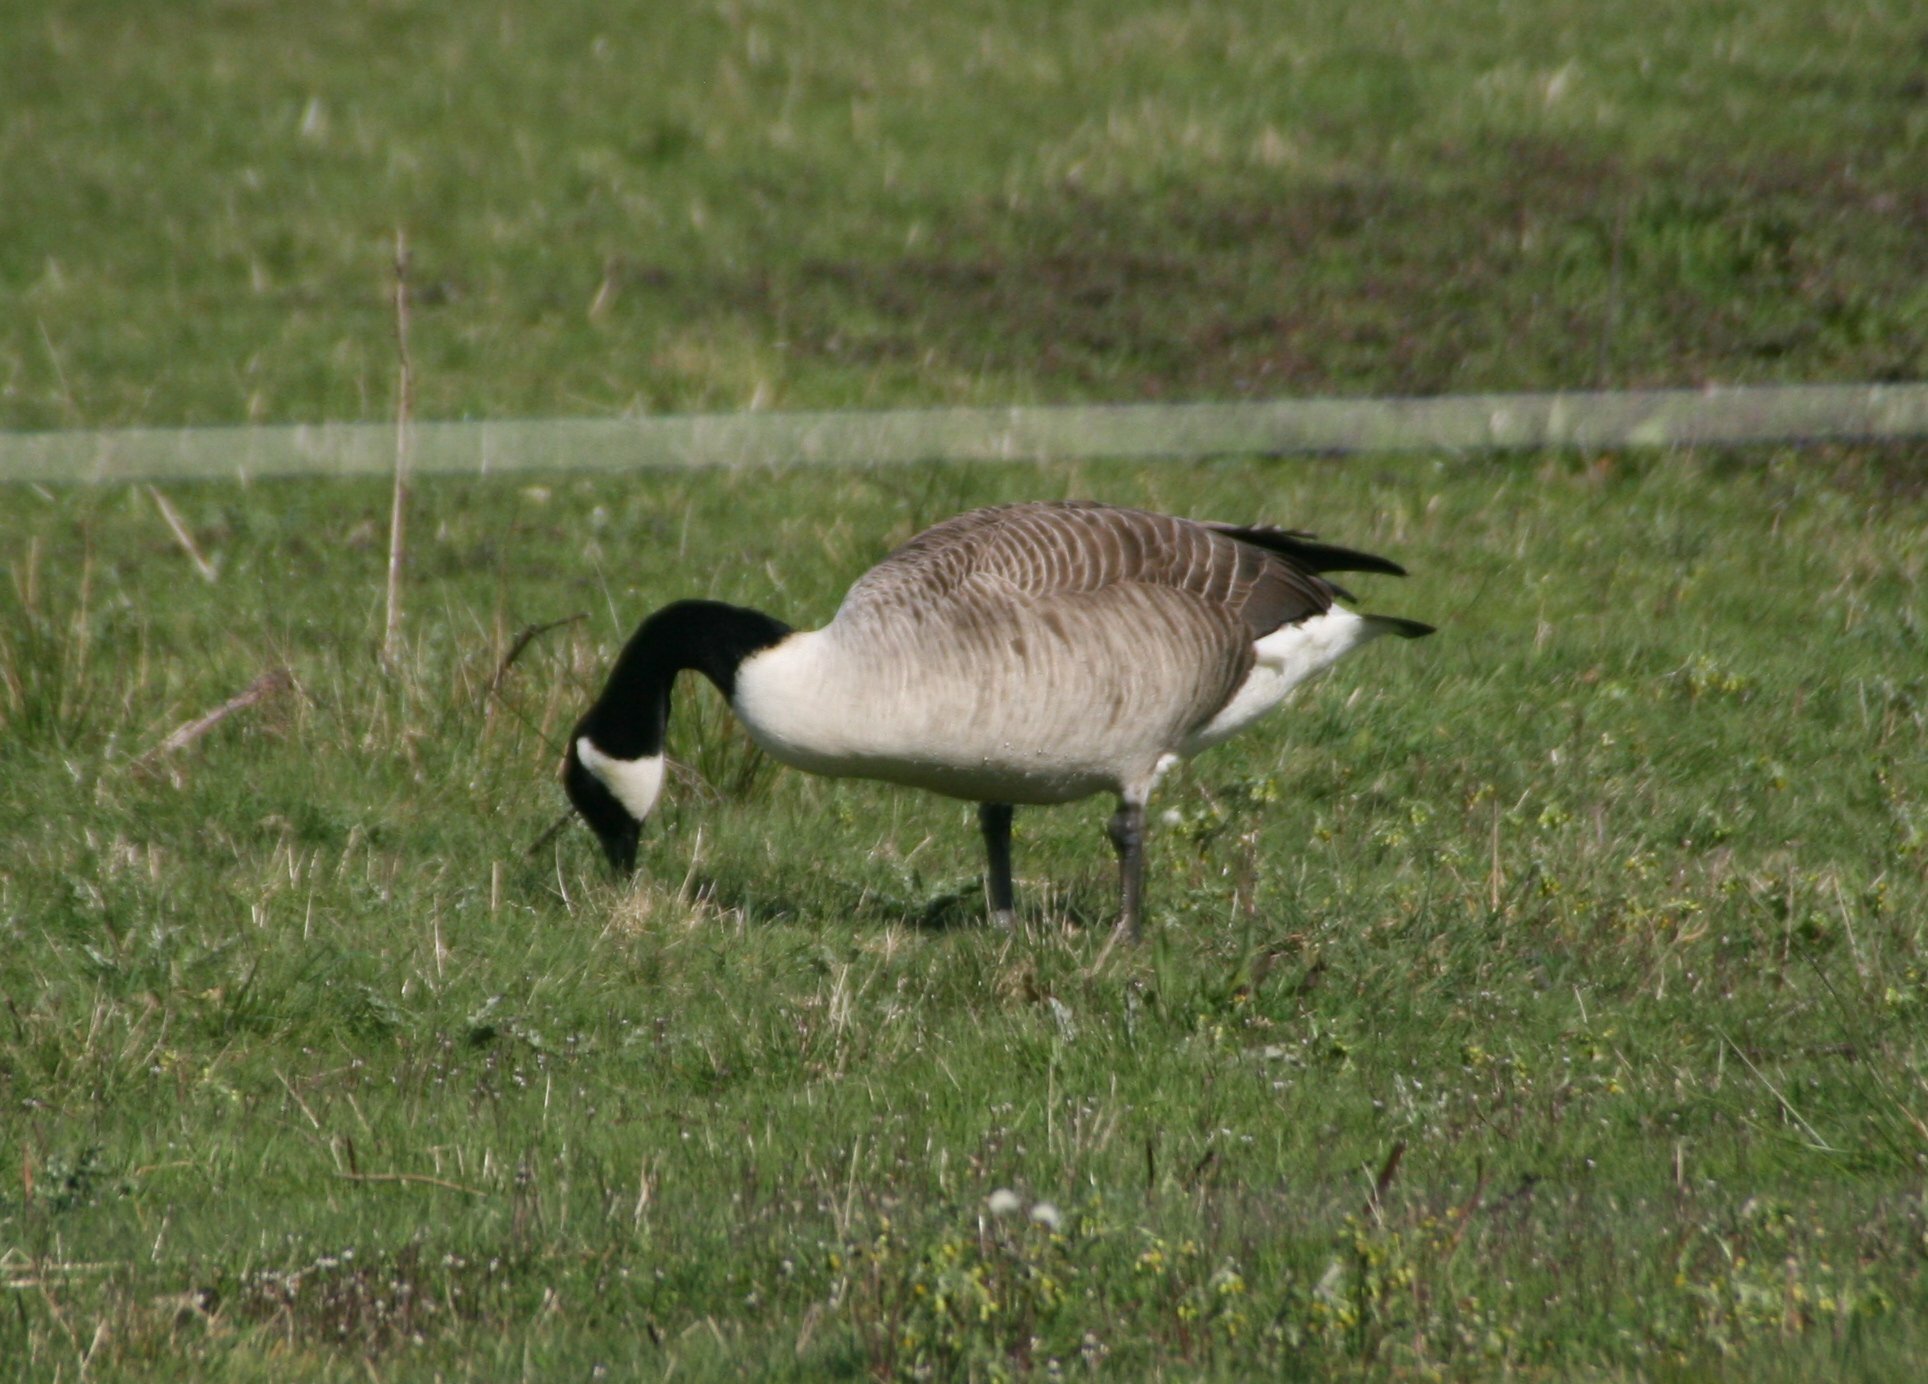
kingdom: Animalia
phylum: Chordata
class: Aves
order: Anseriformes
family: Anatidae
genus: Branta
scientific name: Branta canadensis
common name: Canada goose
